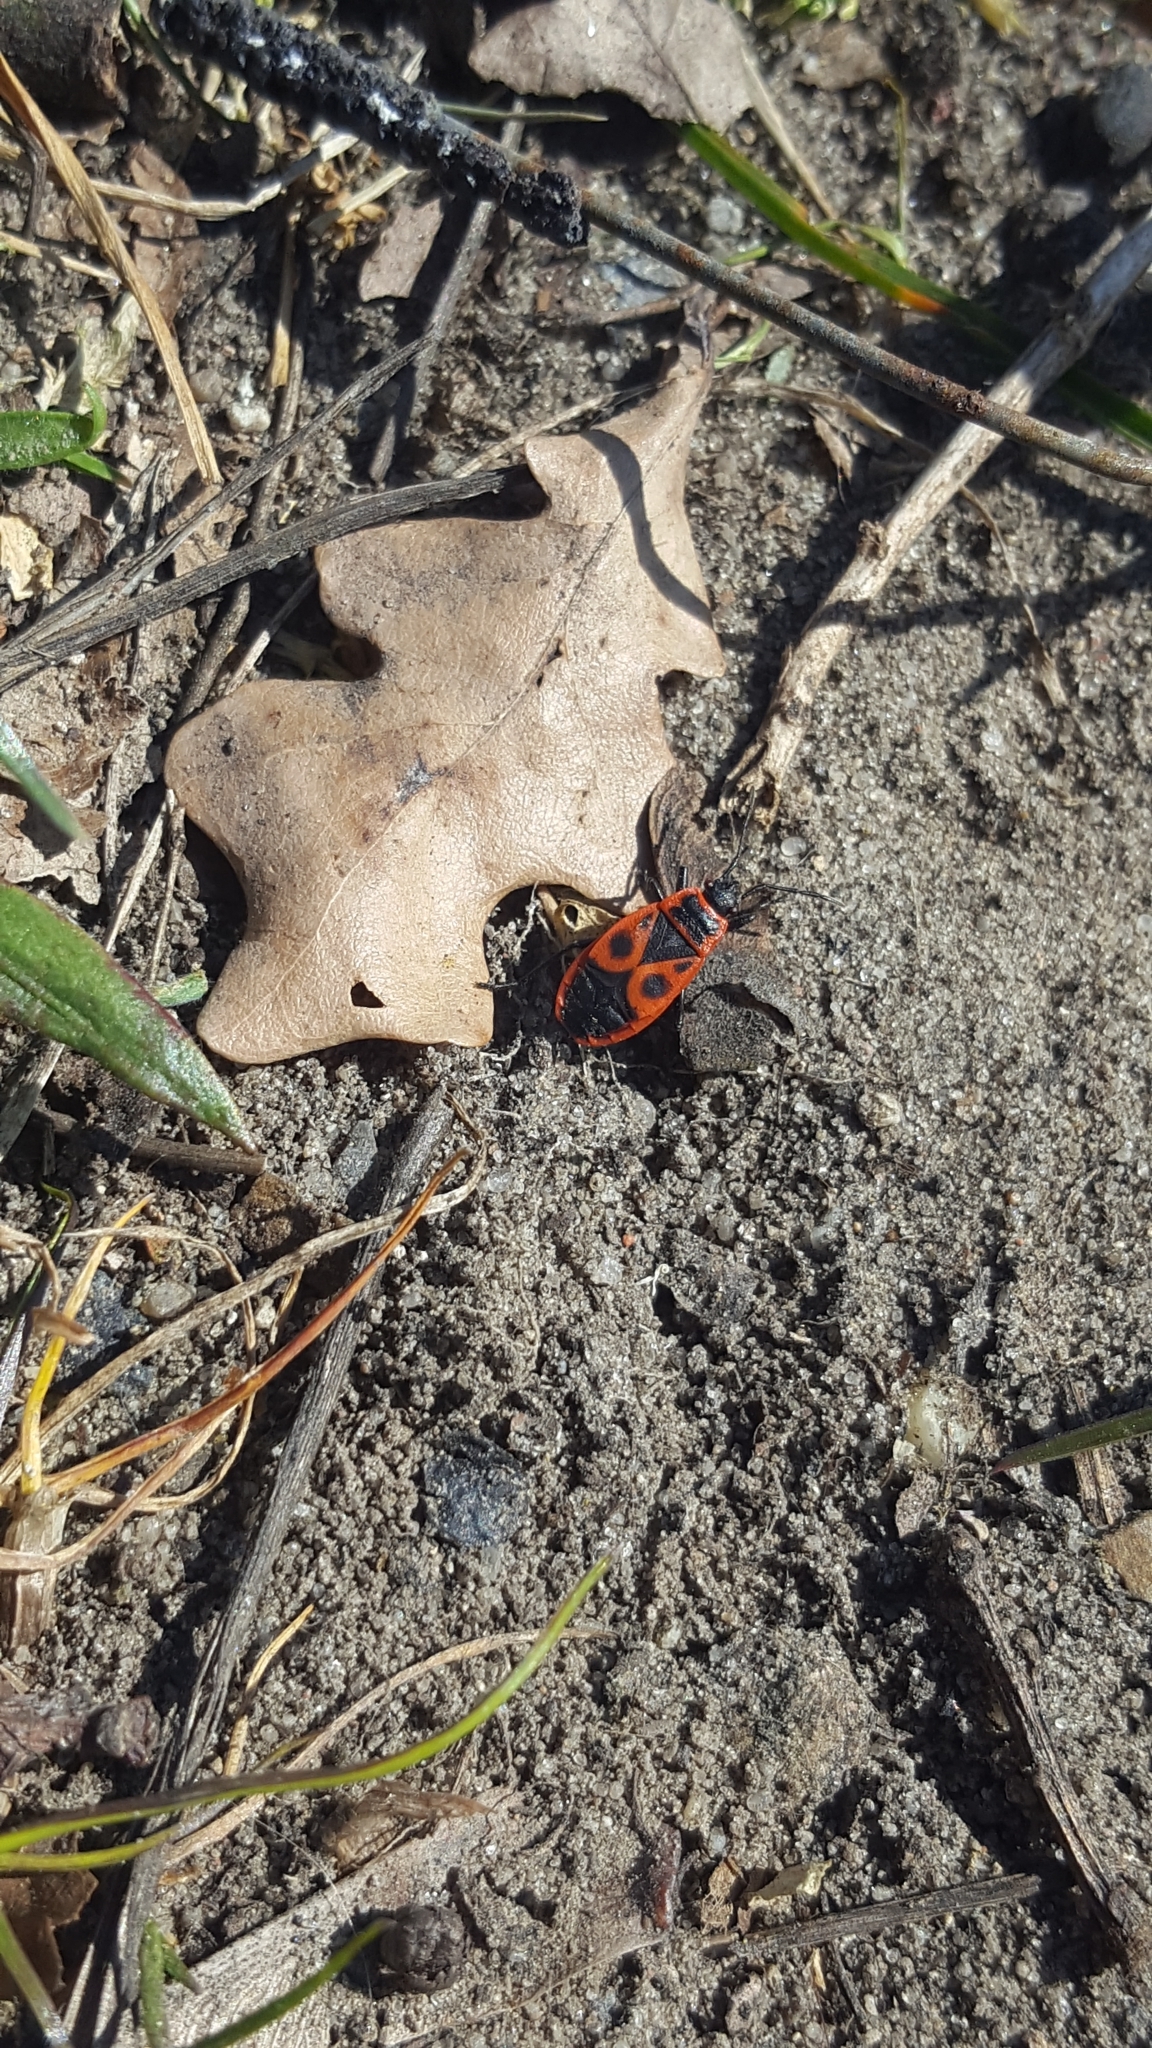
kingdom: Animalia
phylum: Arthropoda
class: Insecta
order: Hemiptera
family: Pyrrhocoridae
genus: Pyrrhocoris
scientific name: Pyrrhocoris apterus
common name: Firebug
